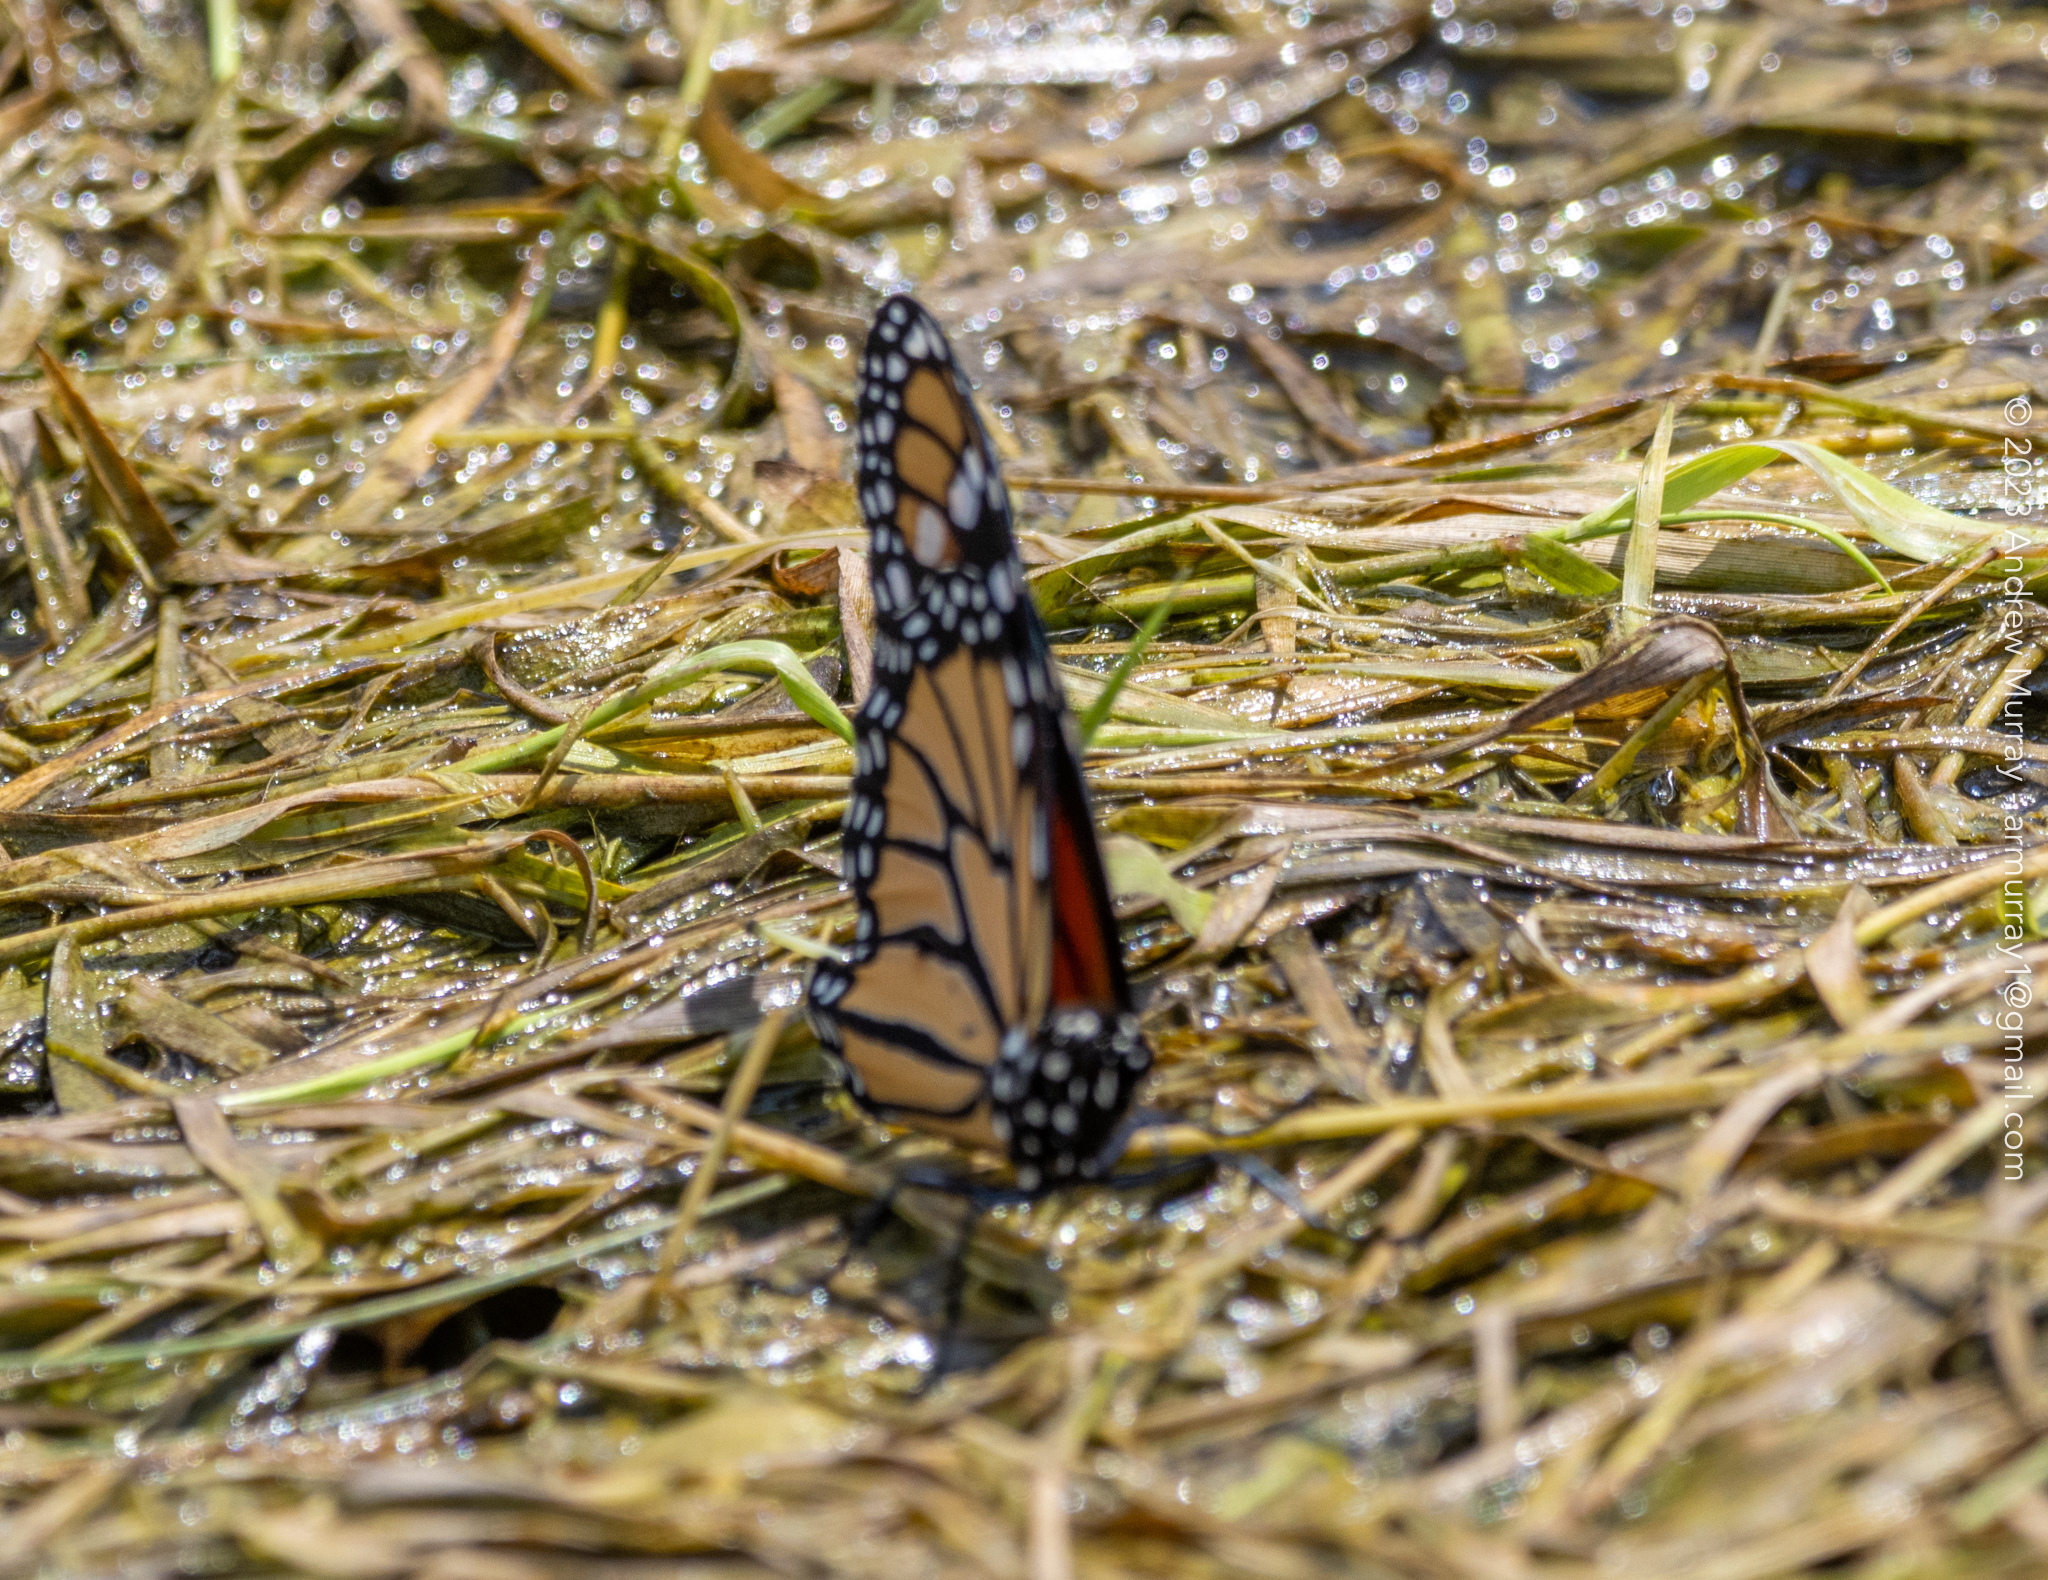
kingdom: Animalia
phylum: Arthropoda
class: Insecta
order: Lepidoptera
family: Nymphalidae
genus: Danaus
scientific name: Danaus plexippus
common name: Monarch
